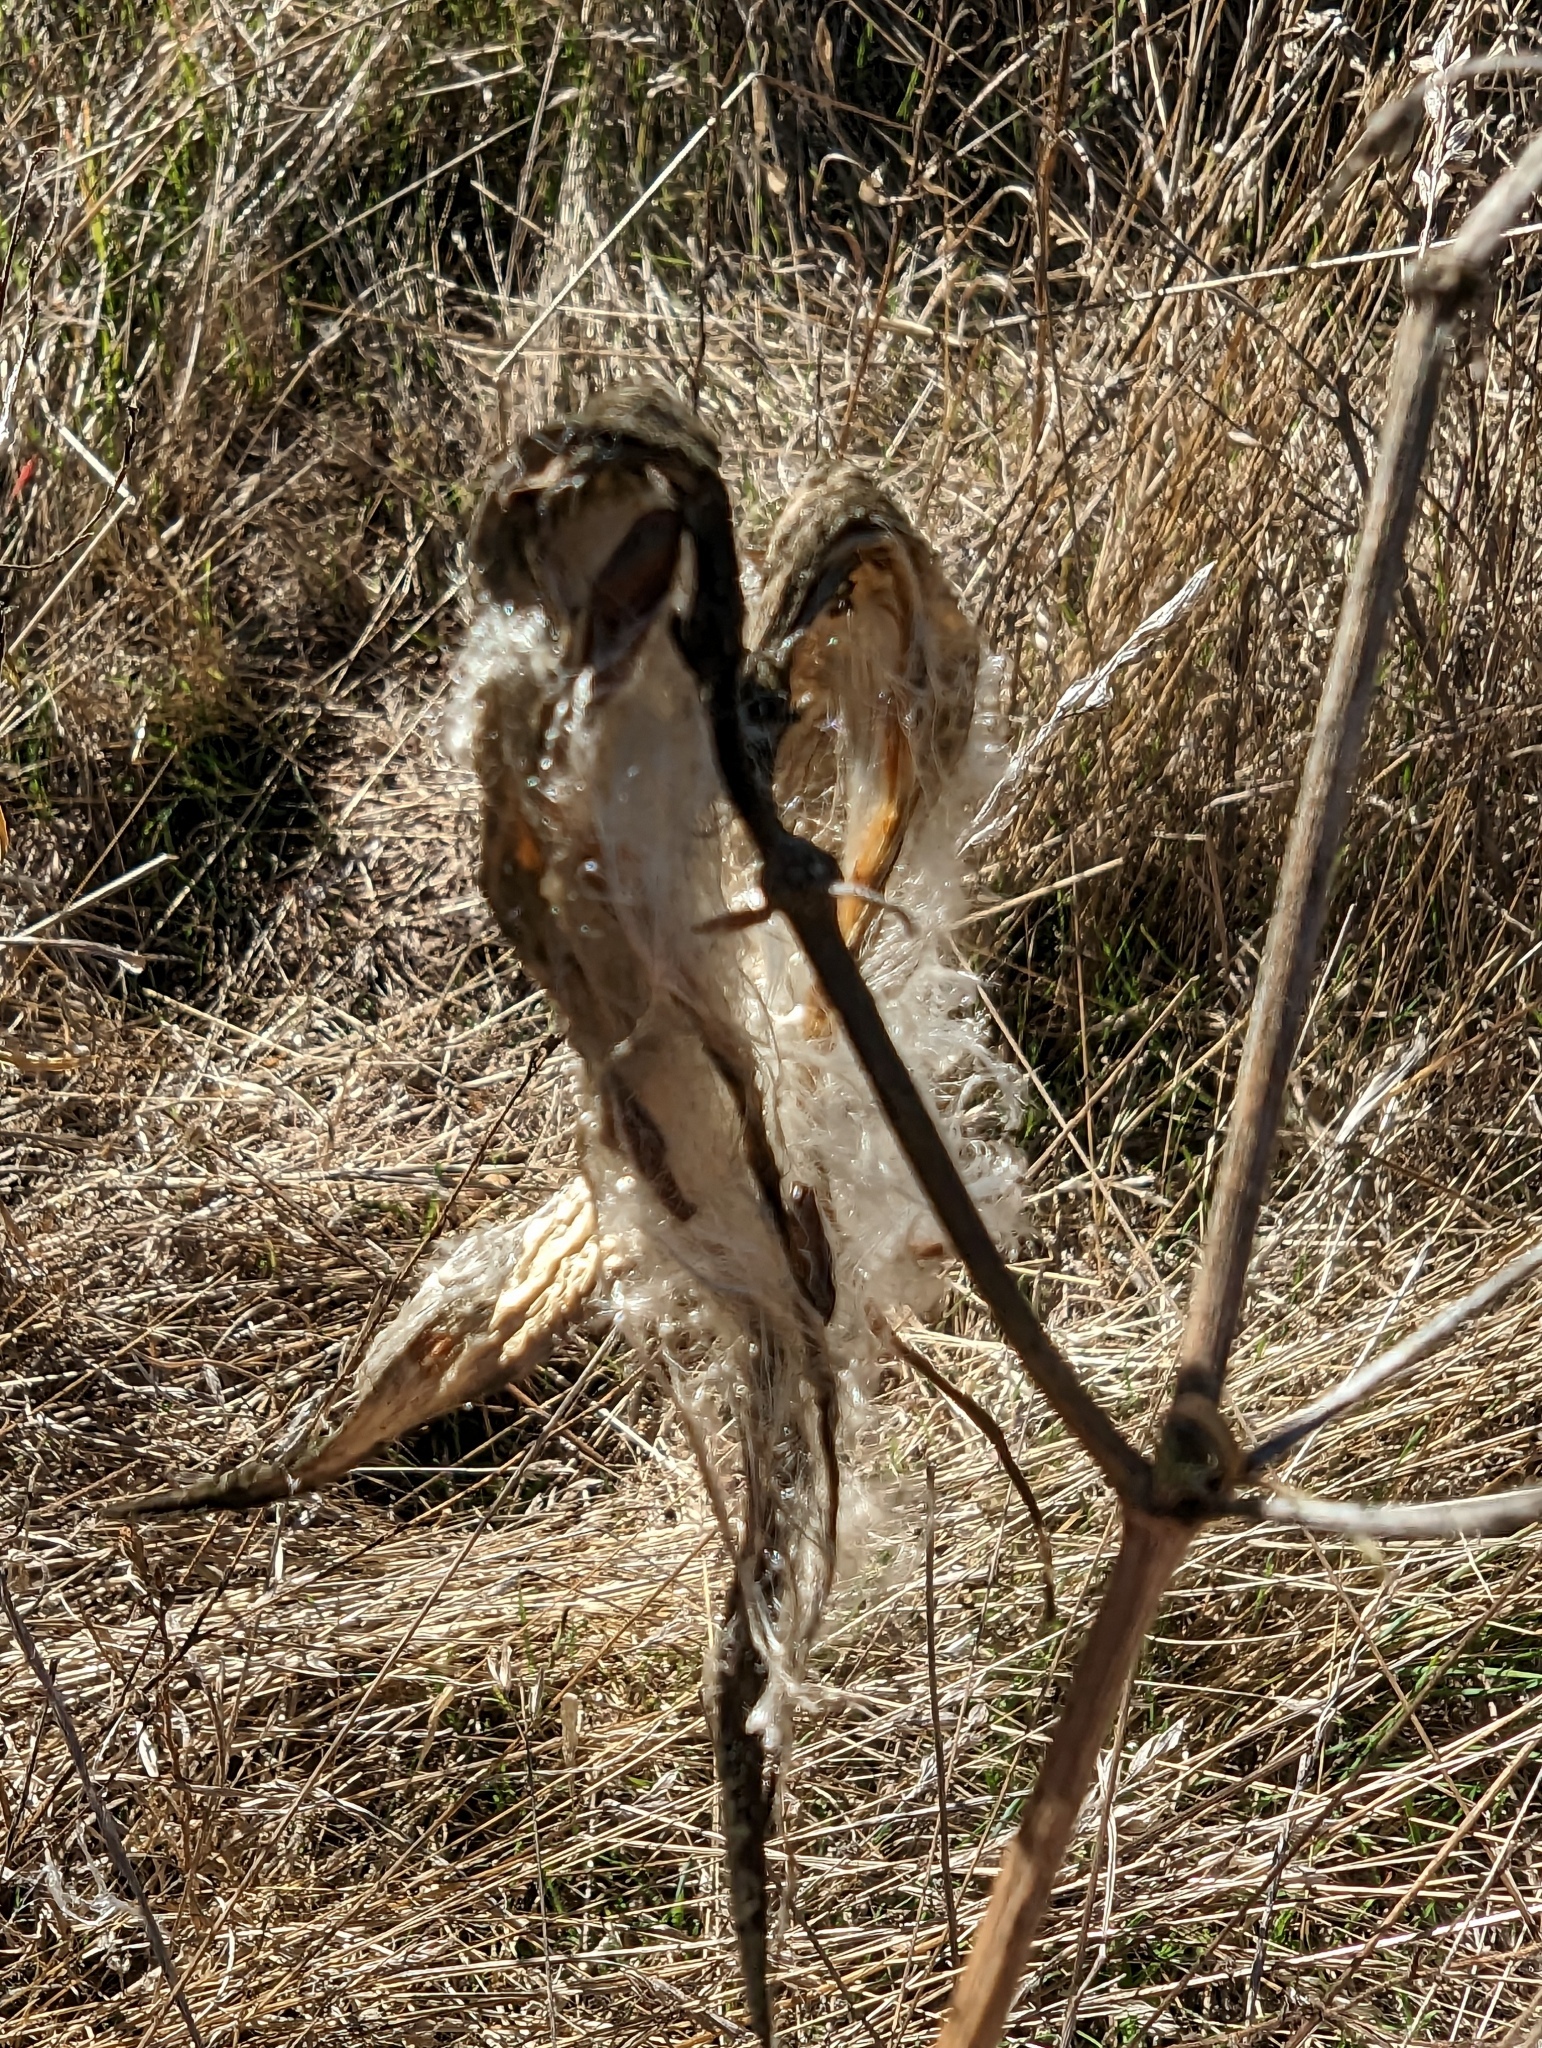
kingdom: Plantae
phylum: Tracheophyta
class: Magnoliopsida
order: Gentianales
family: Apocynaceae
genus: Asclepias
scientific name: Asclepias fascicularis
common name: Mexican milkweed
